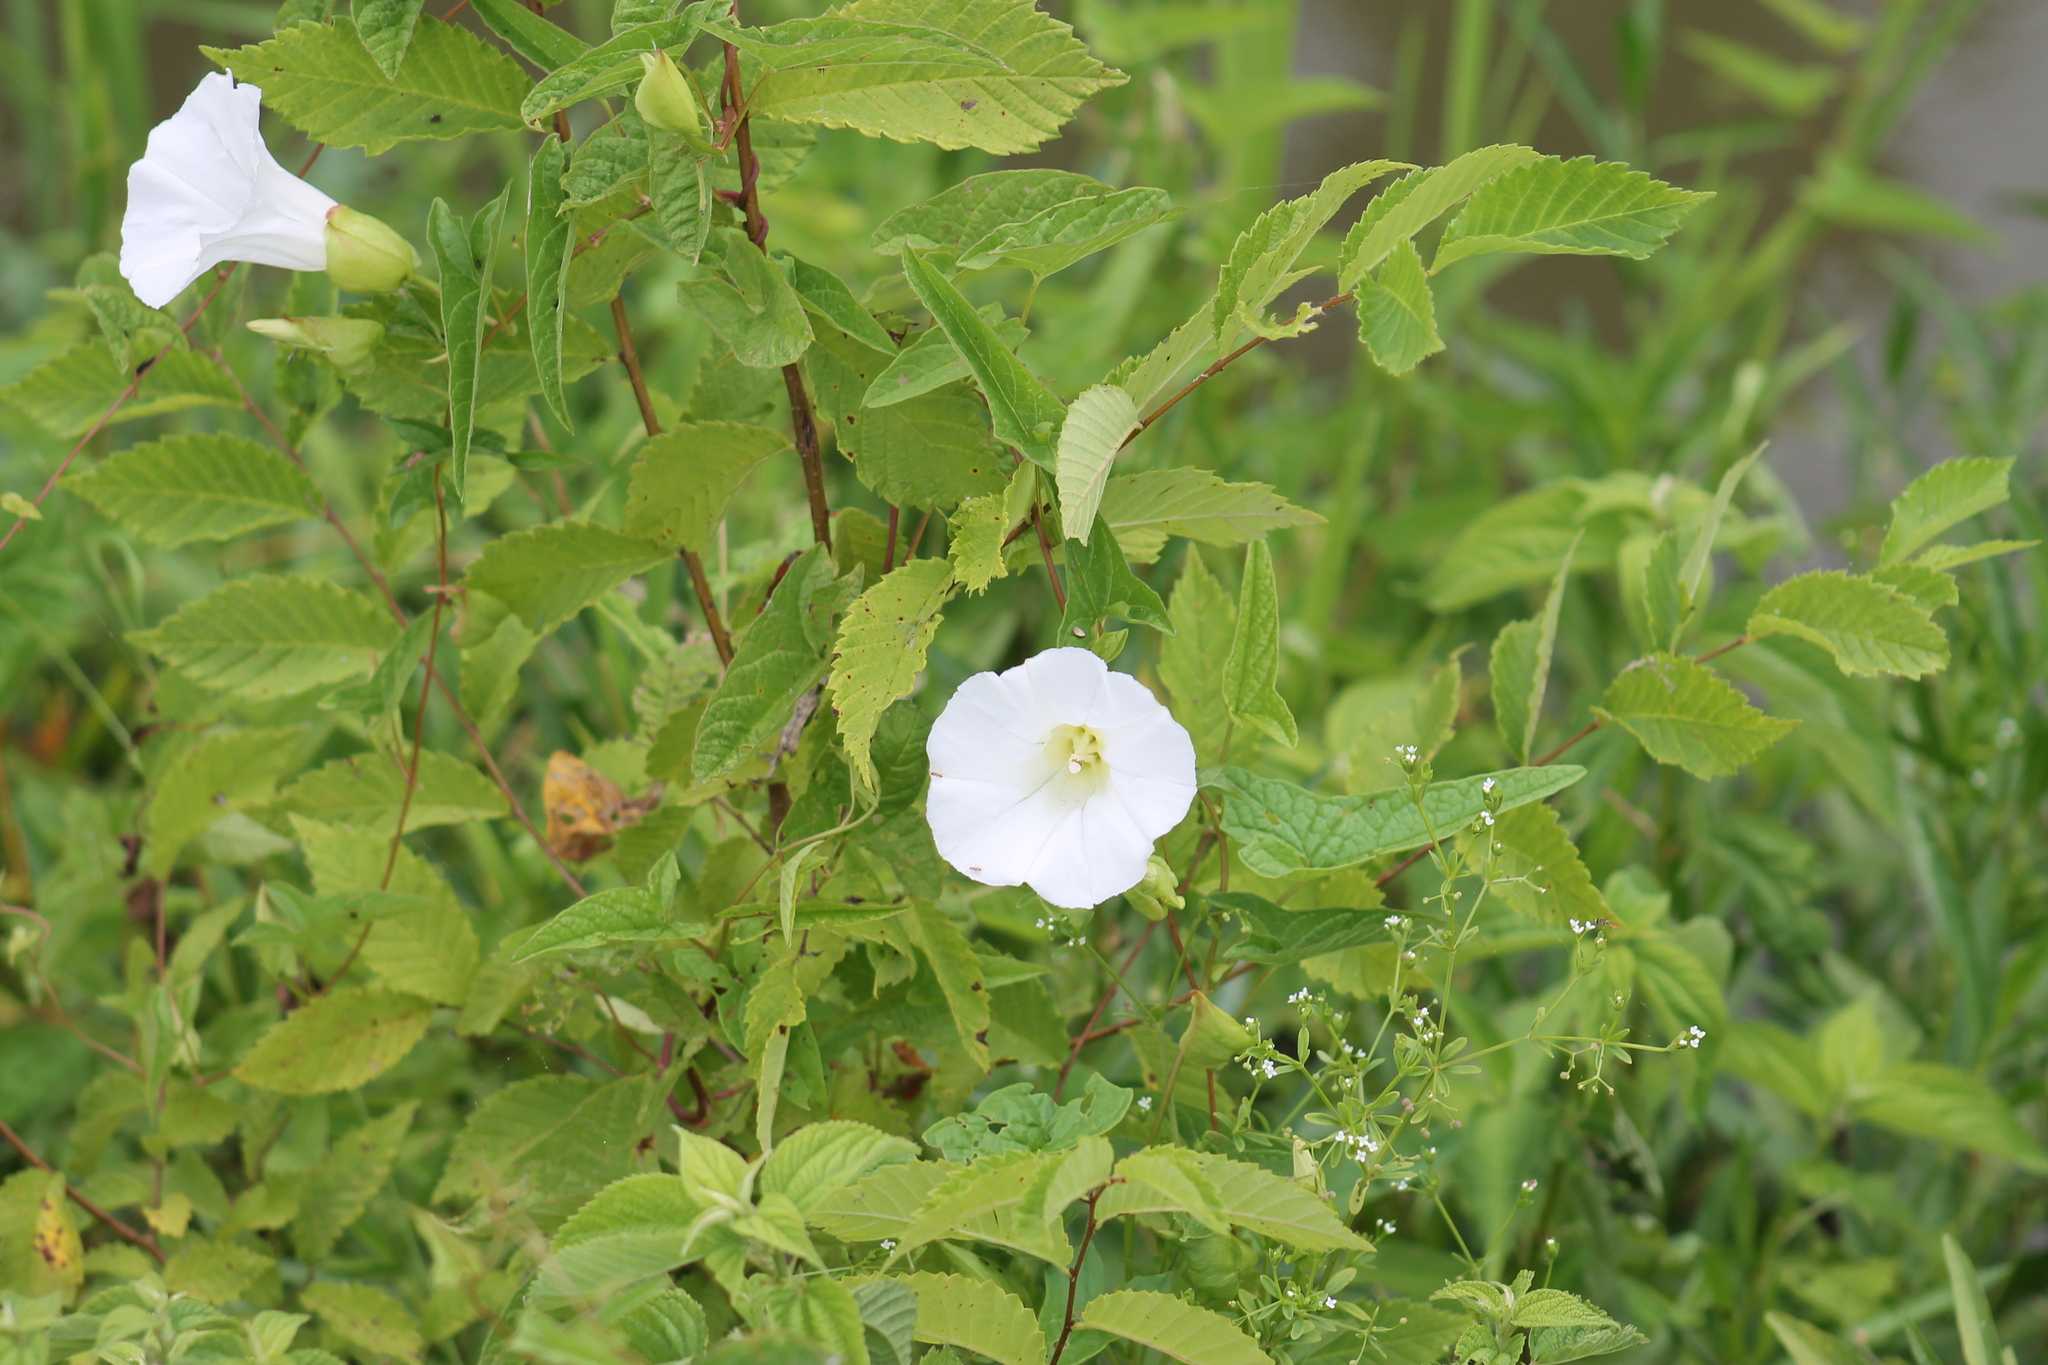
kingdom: Plantae
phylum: Tracheophyta
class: Magnoliopsida
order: Solanales
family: Convolvulaceae
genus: Calystegia
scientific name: Calystegia sepium
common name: Hedge bindweed
